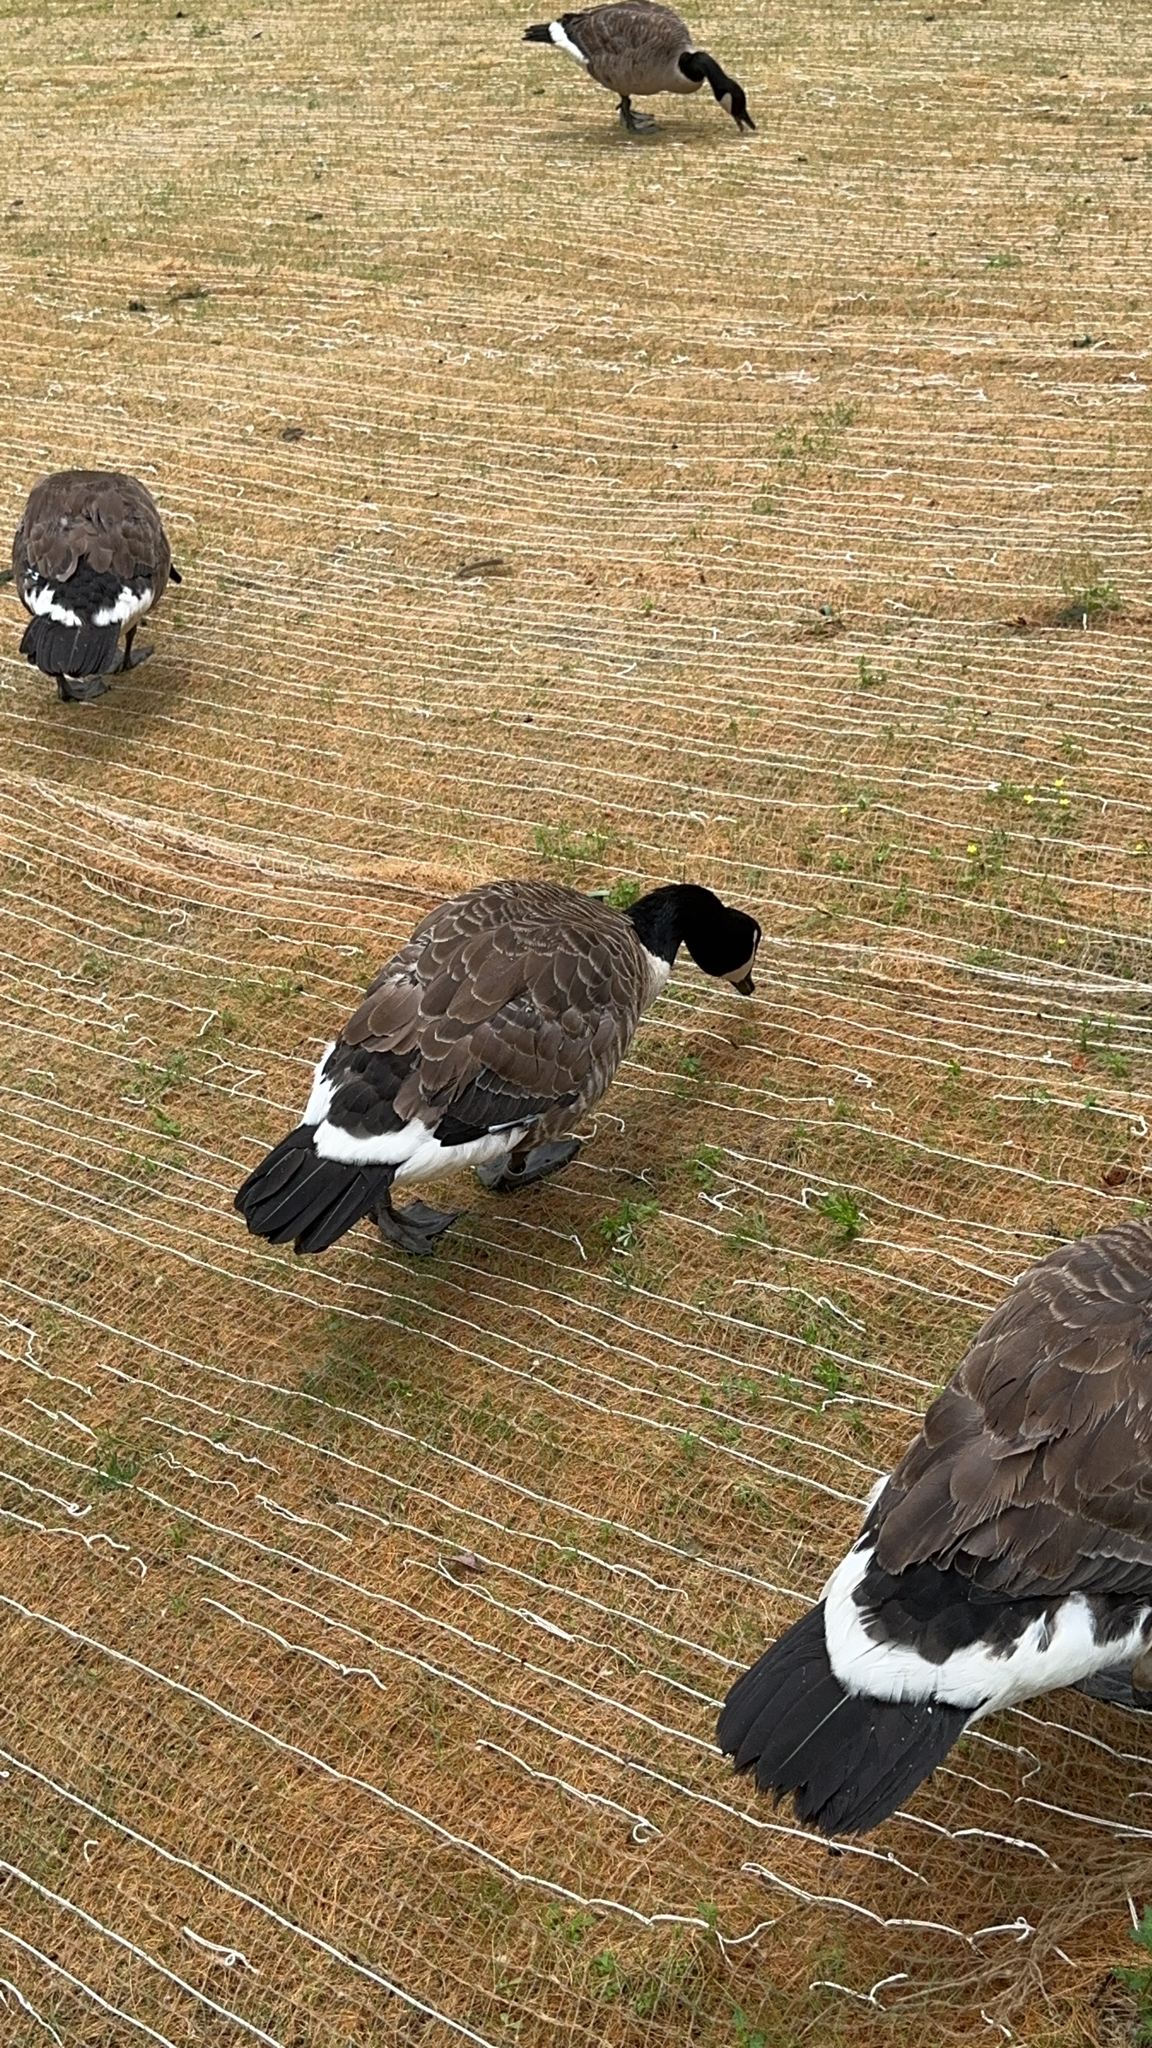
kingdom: Animalia
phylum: Chordata
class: Aves
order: Anseriformes
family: Anatidae
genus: Branta
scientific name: Branta canadensis
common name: Canada goose
